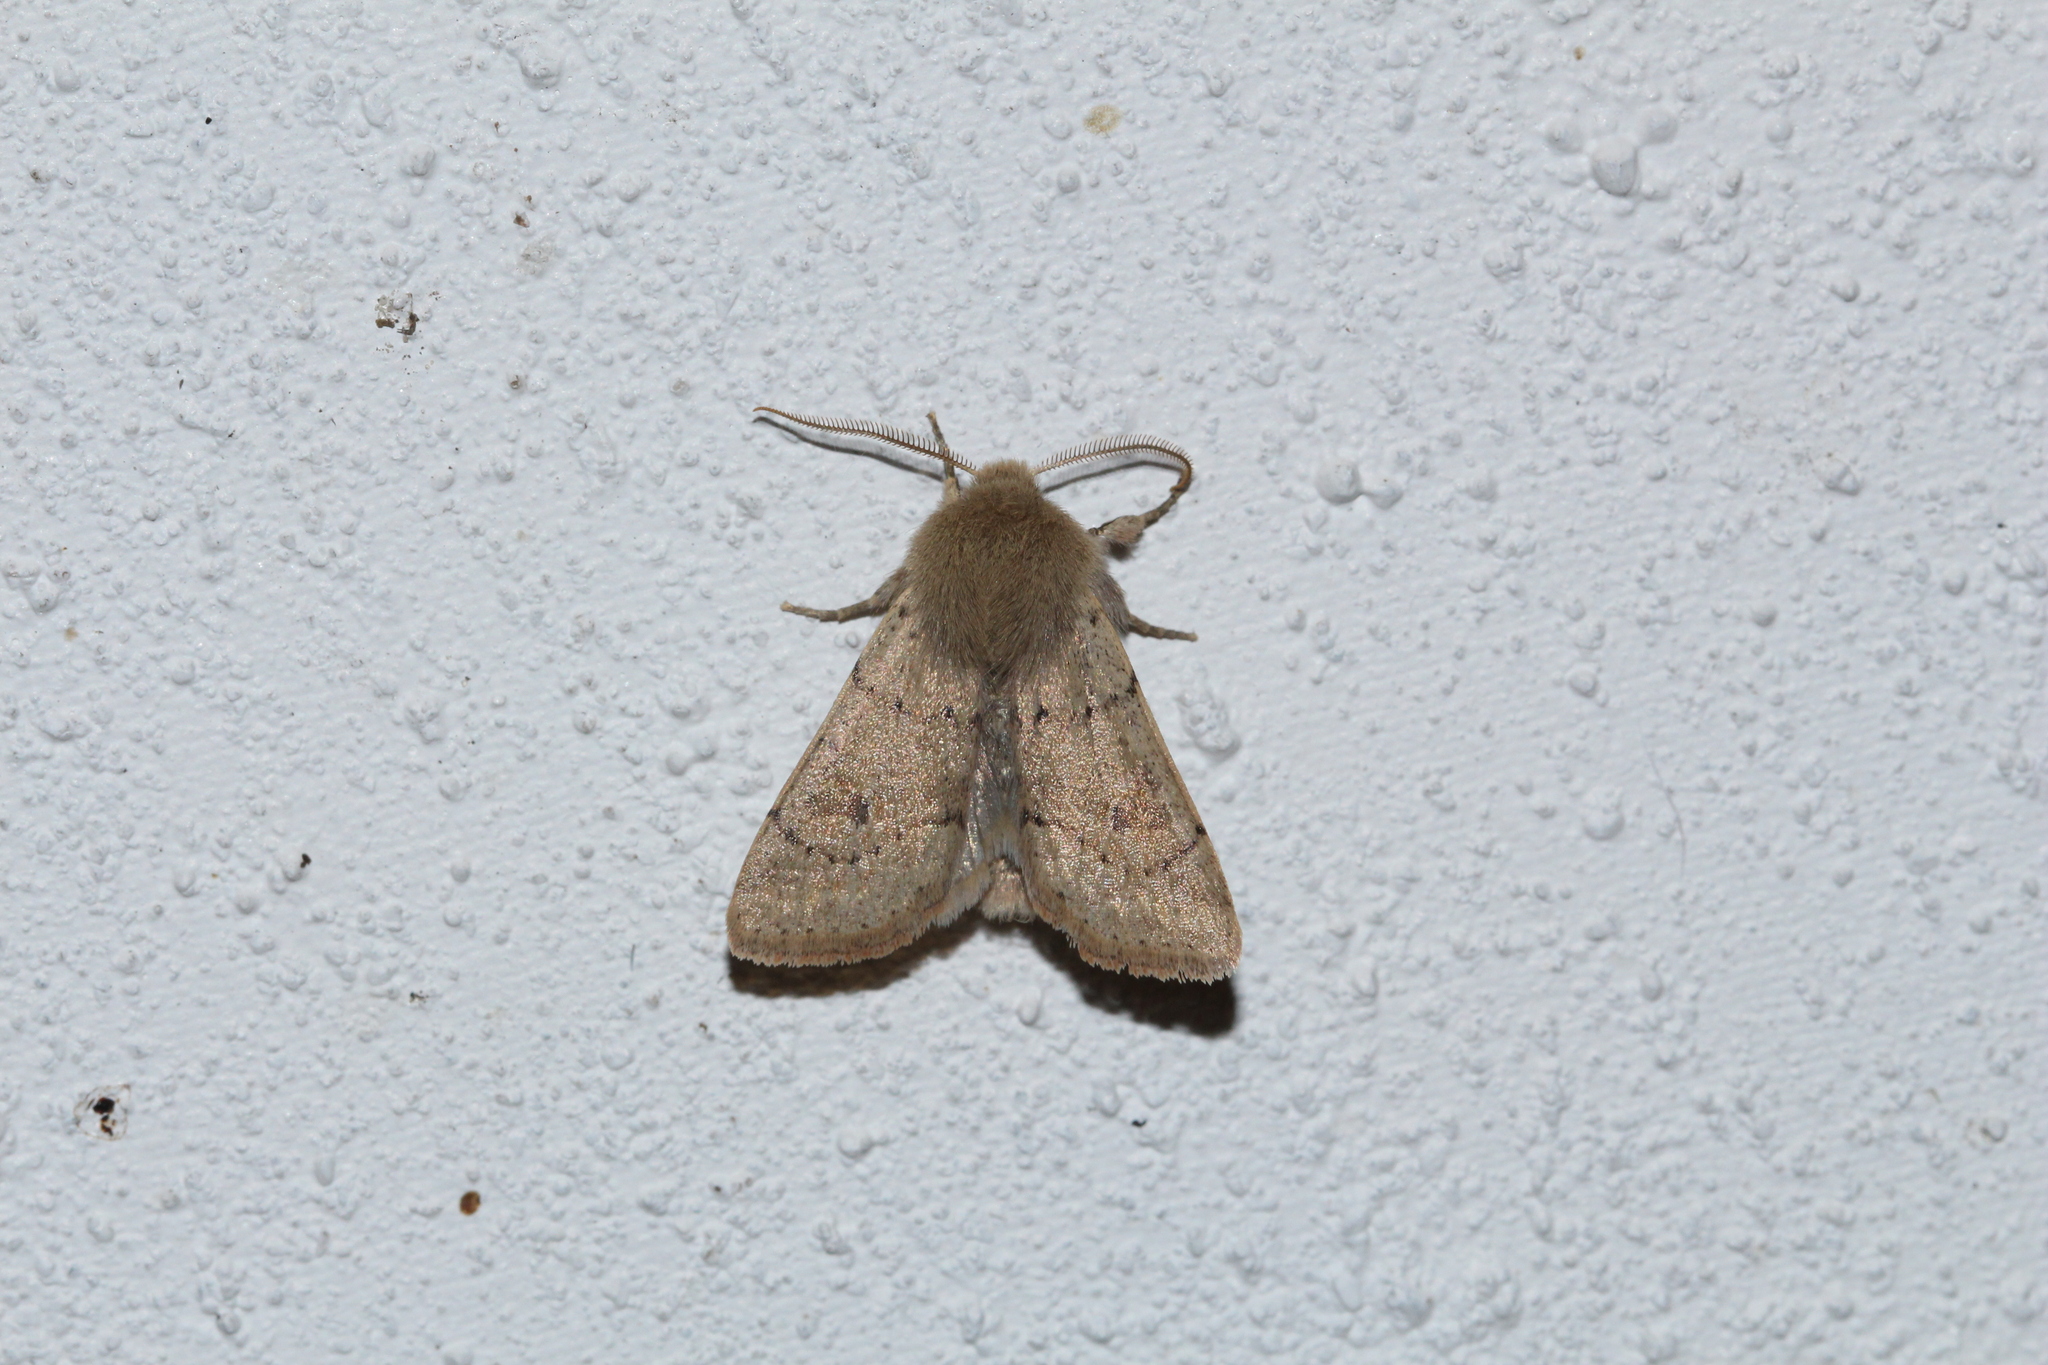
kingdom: Animalia
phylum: Arthropoda
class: Insecta
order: Lepidoptera
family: Noctuidae
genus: Orthosia
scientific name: Orthosia cruda
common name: Small quaker
